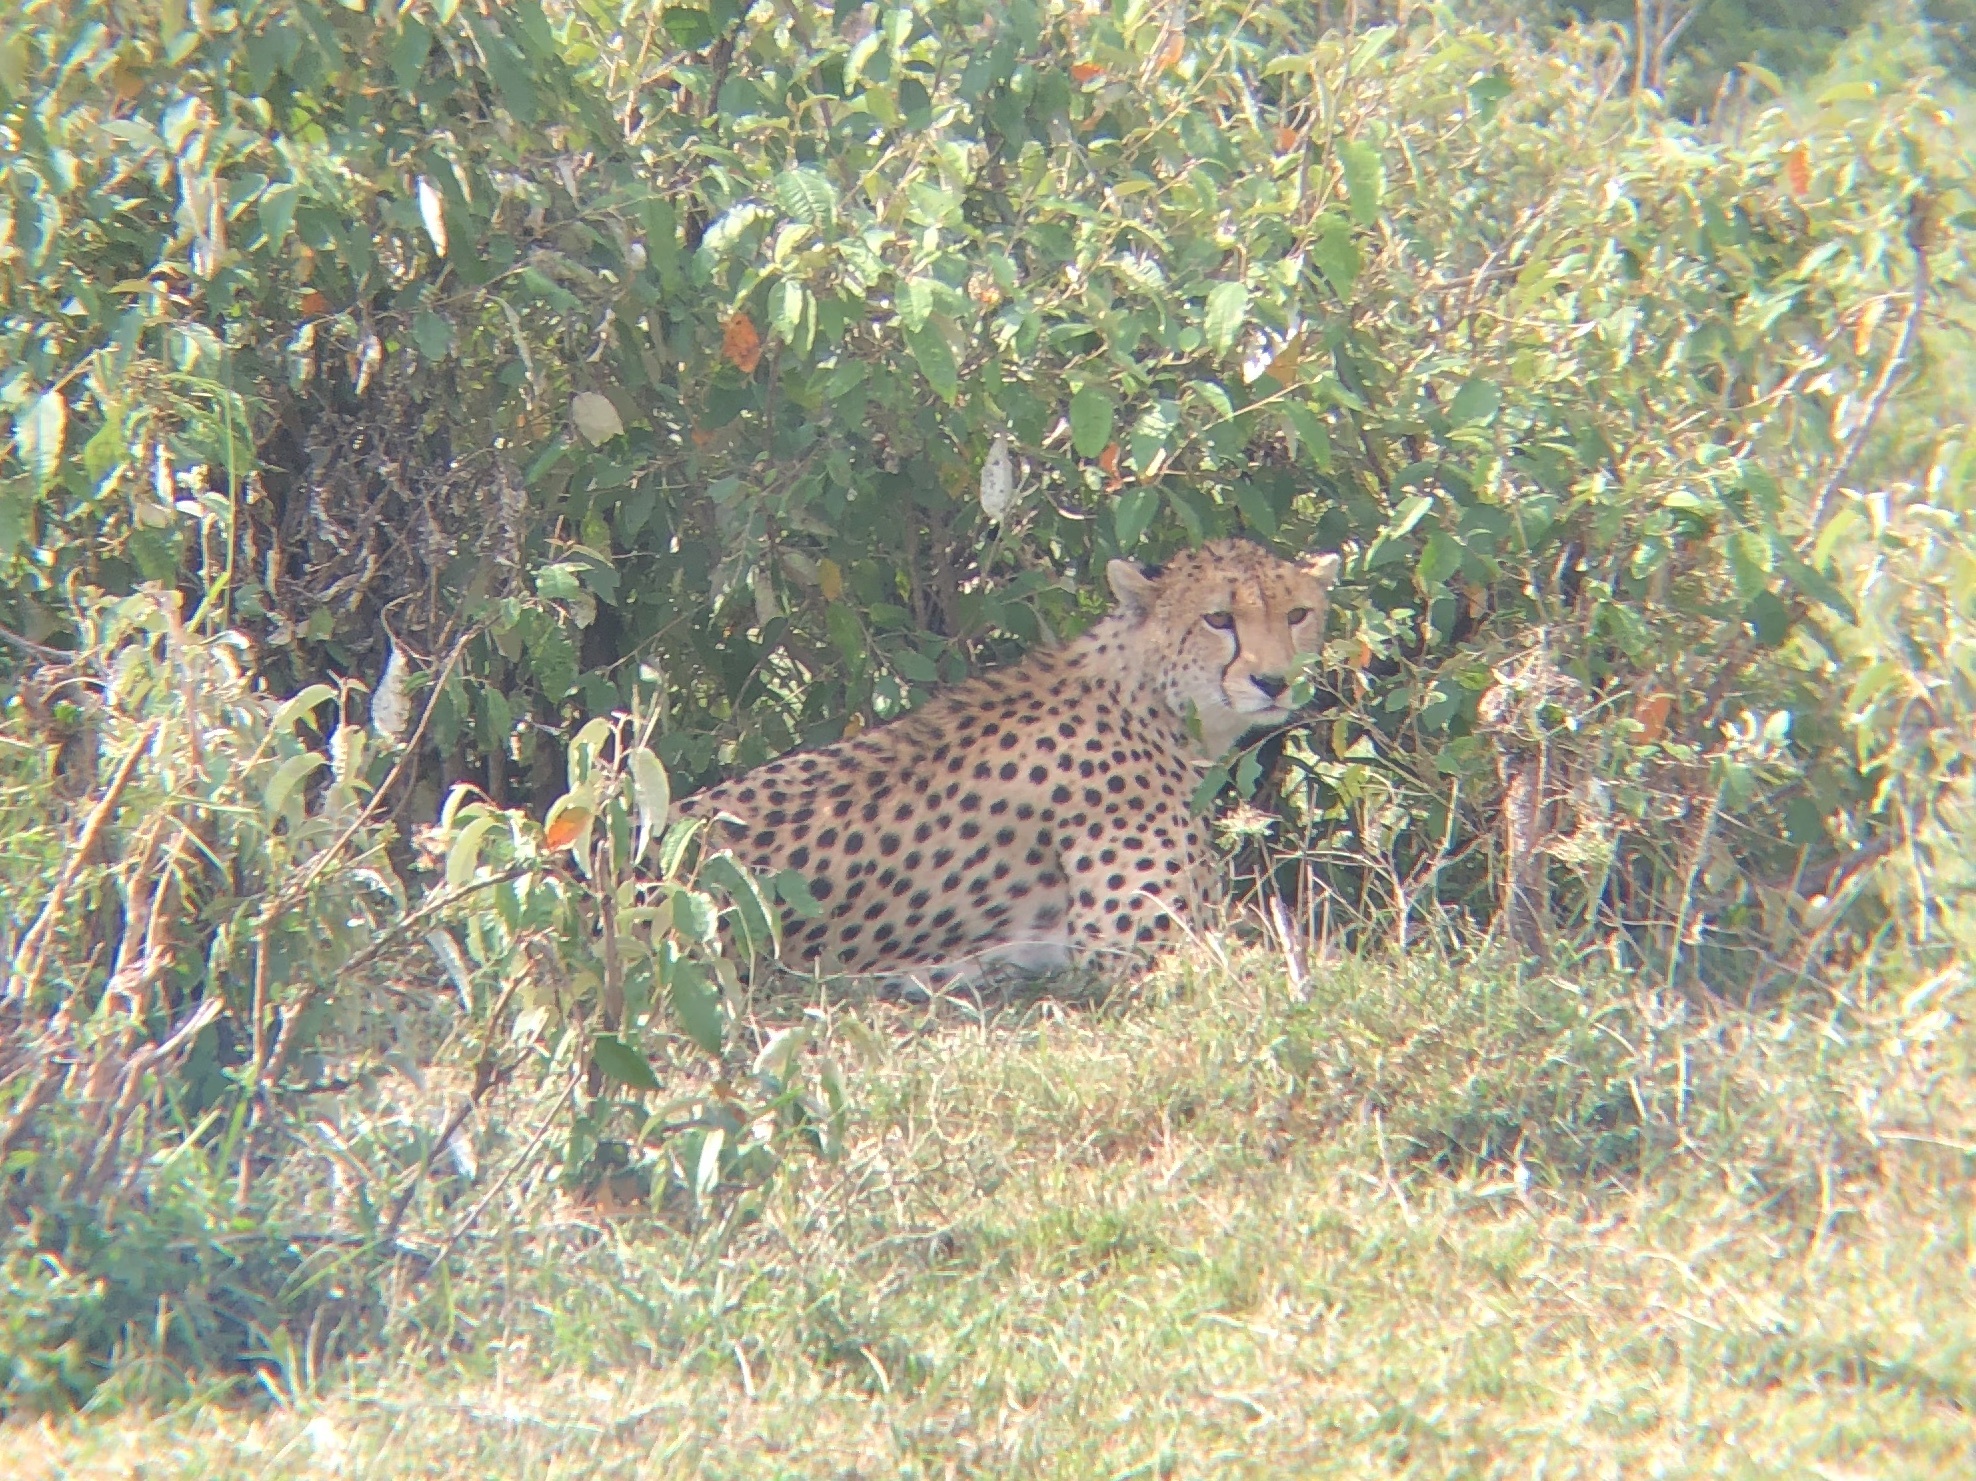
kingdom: Animalia
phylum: Chordata
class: Mammalia
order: Carnivora
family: Felidae
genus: Acinonyx
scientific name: Acinonyx jubatus
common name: Cheetah
